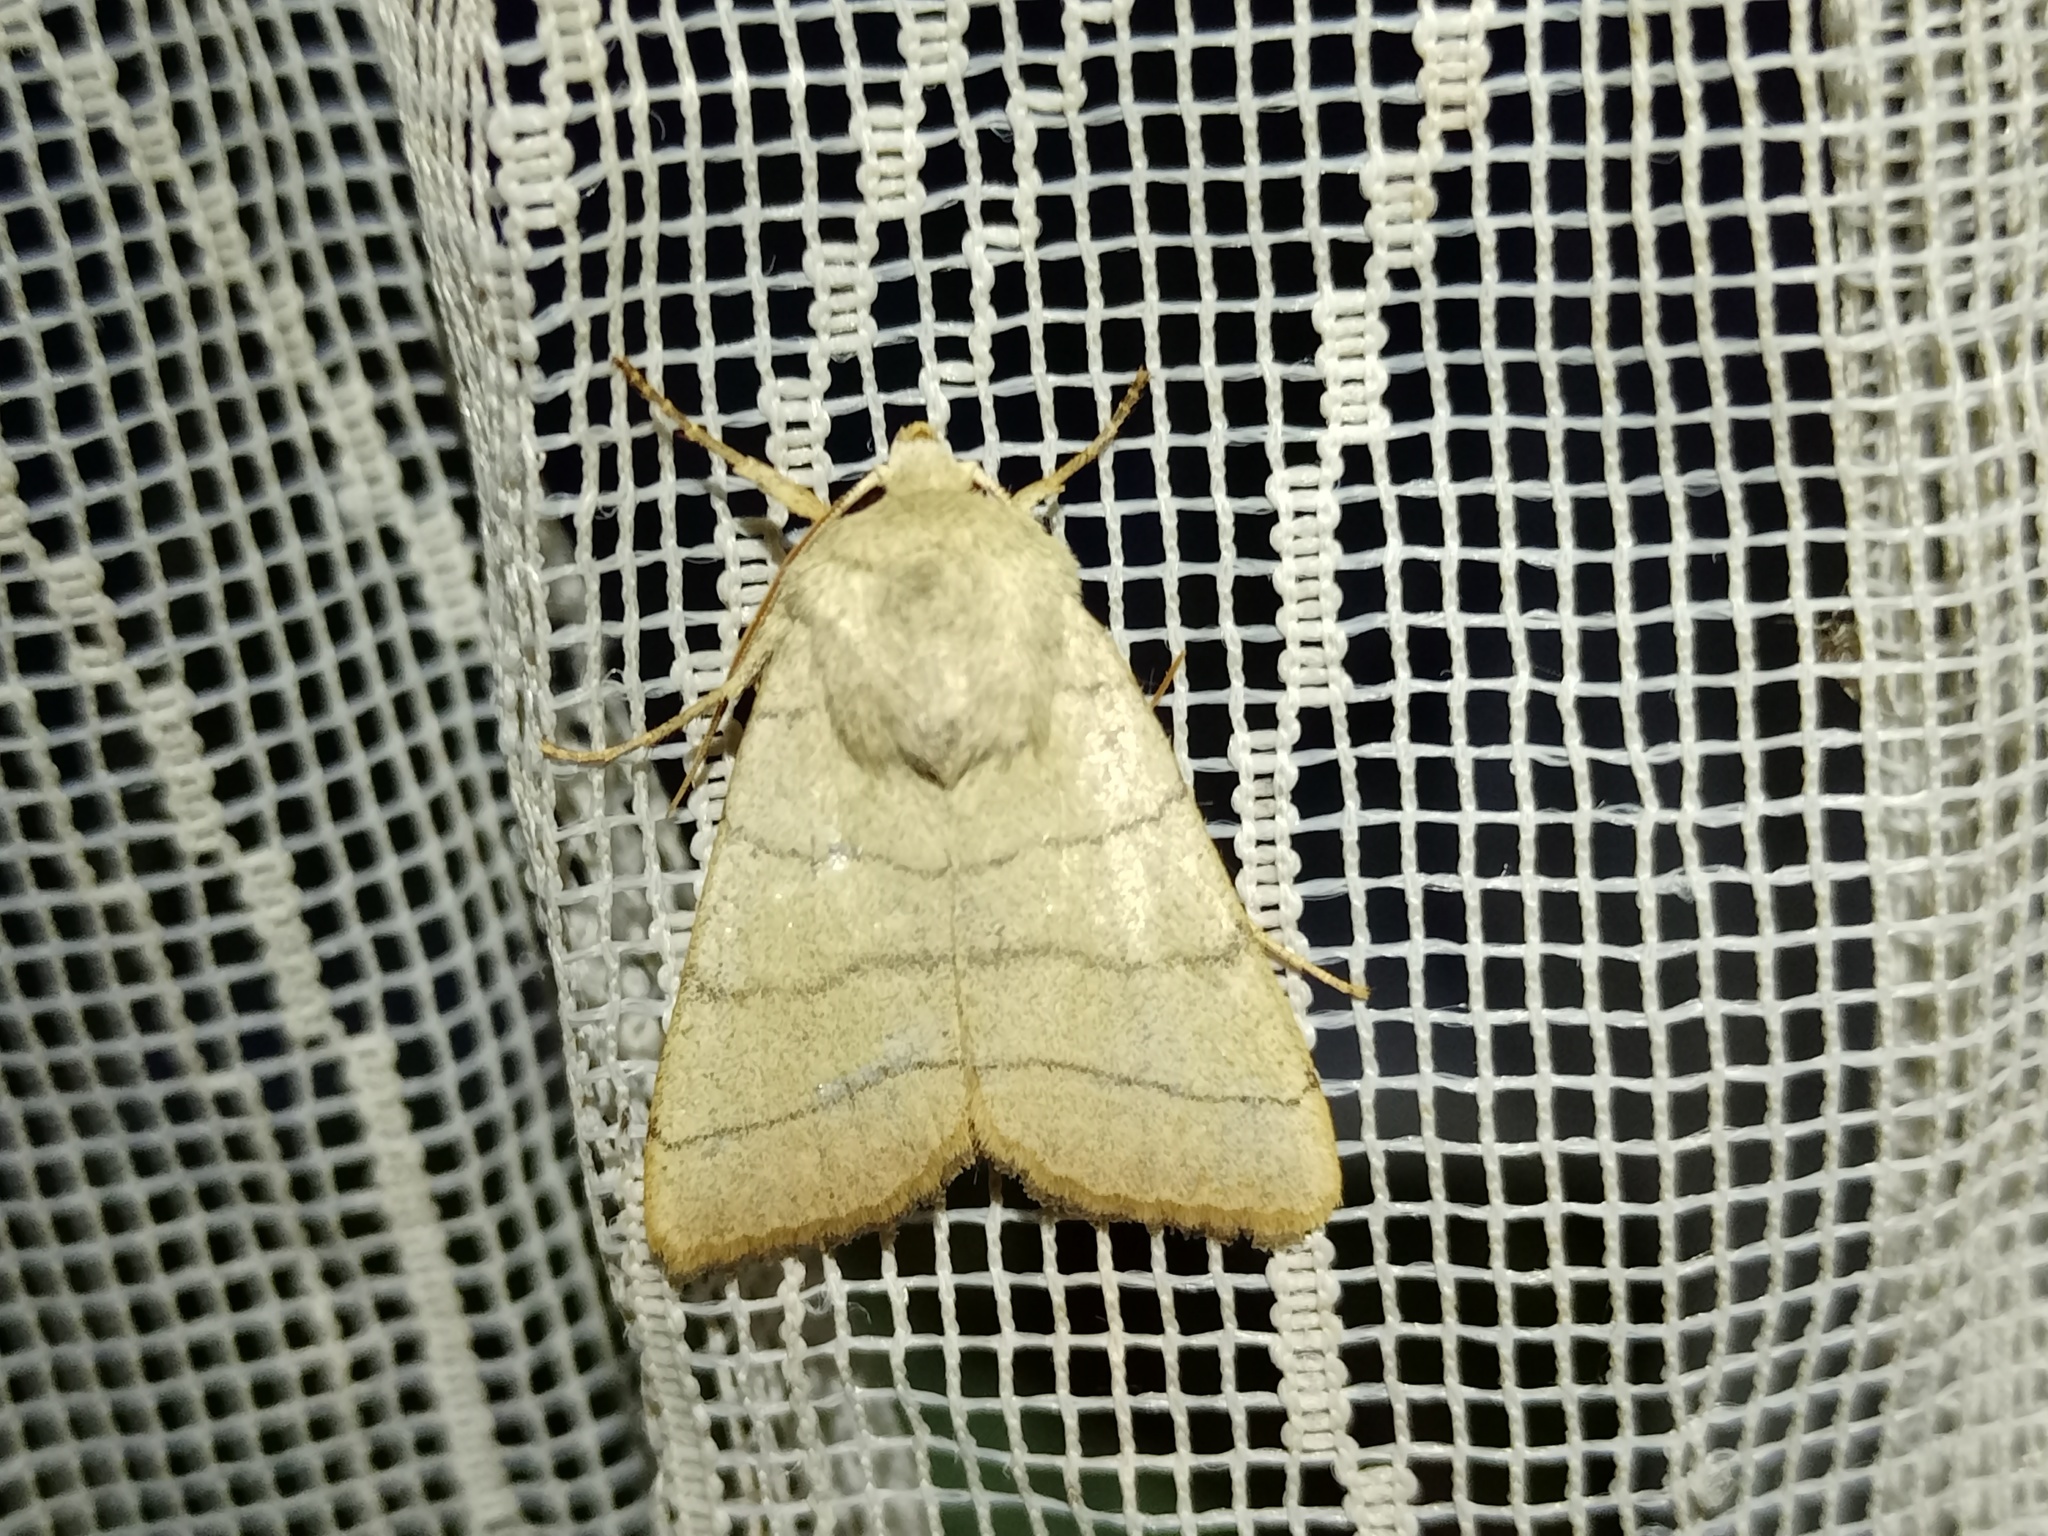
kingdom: Animalia
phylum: Arthropoda
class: Insecta
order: Lepidoptera
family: Noctuidae
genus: Charanyca
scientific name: Charanyca trigrammica
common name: Treble lines
